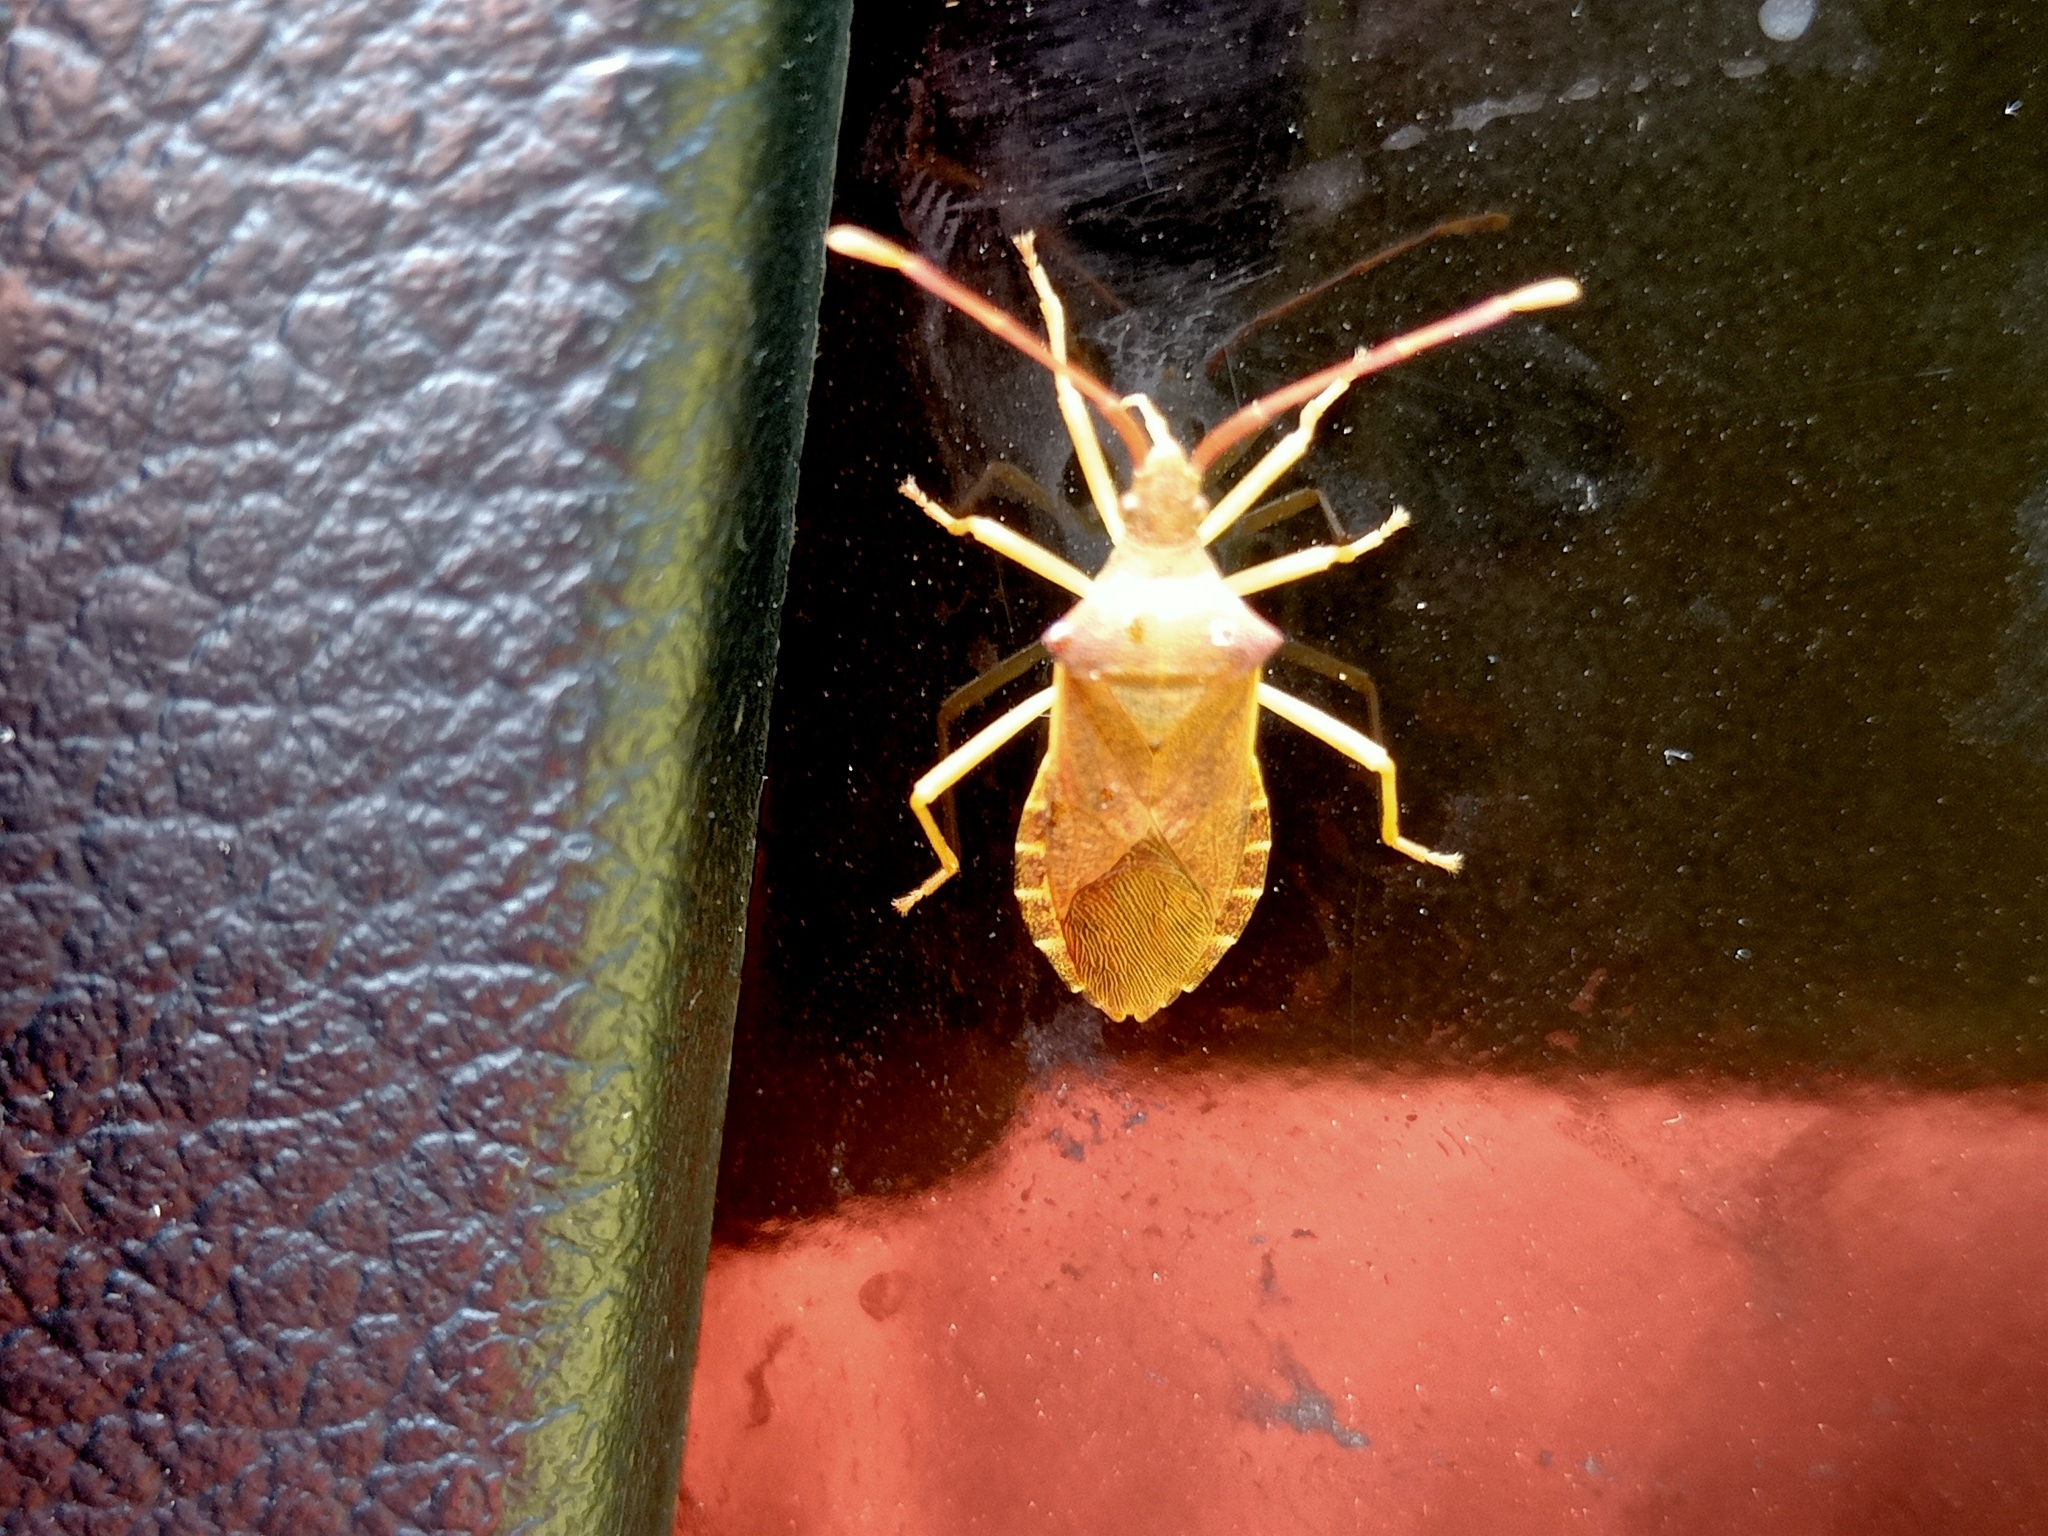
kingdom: Animalia
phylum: Arthropoda
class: Insecta
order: Hemiptera
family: Coreidae
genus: Gonocerus
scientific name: Gonocerus acuteangulatus
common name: Box bug
